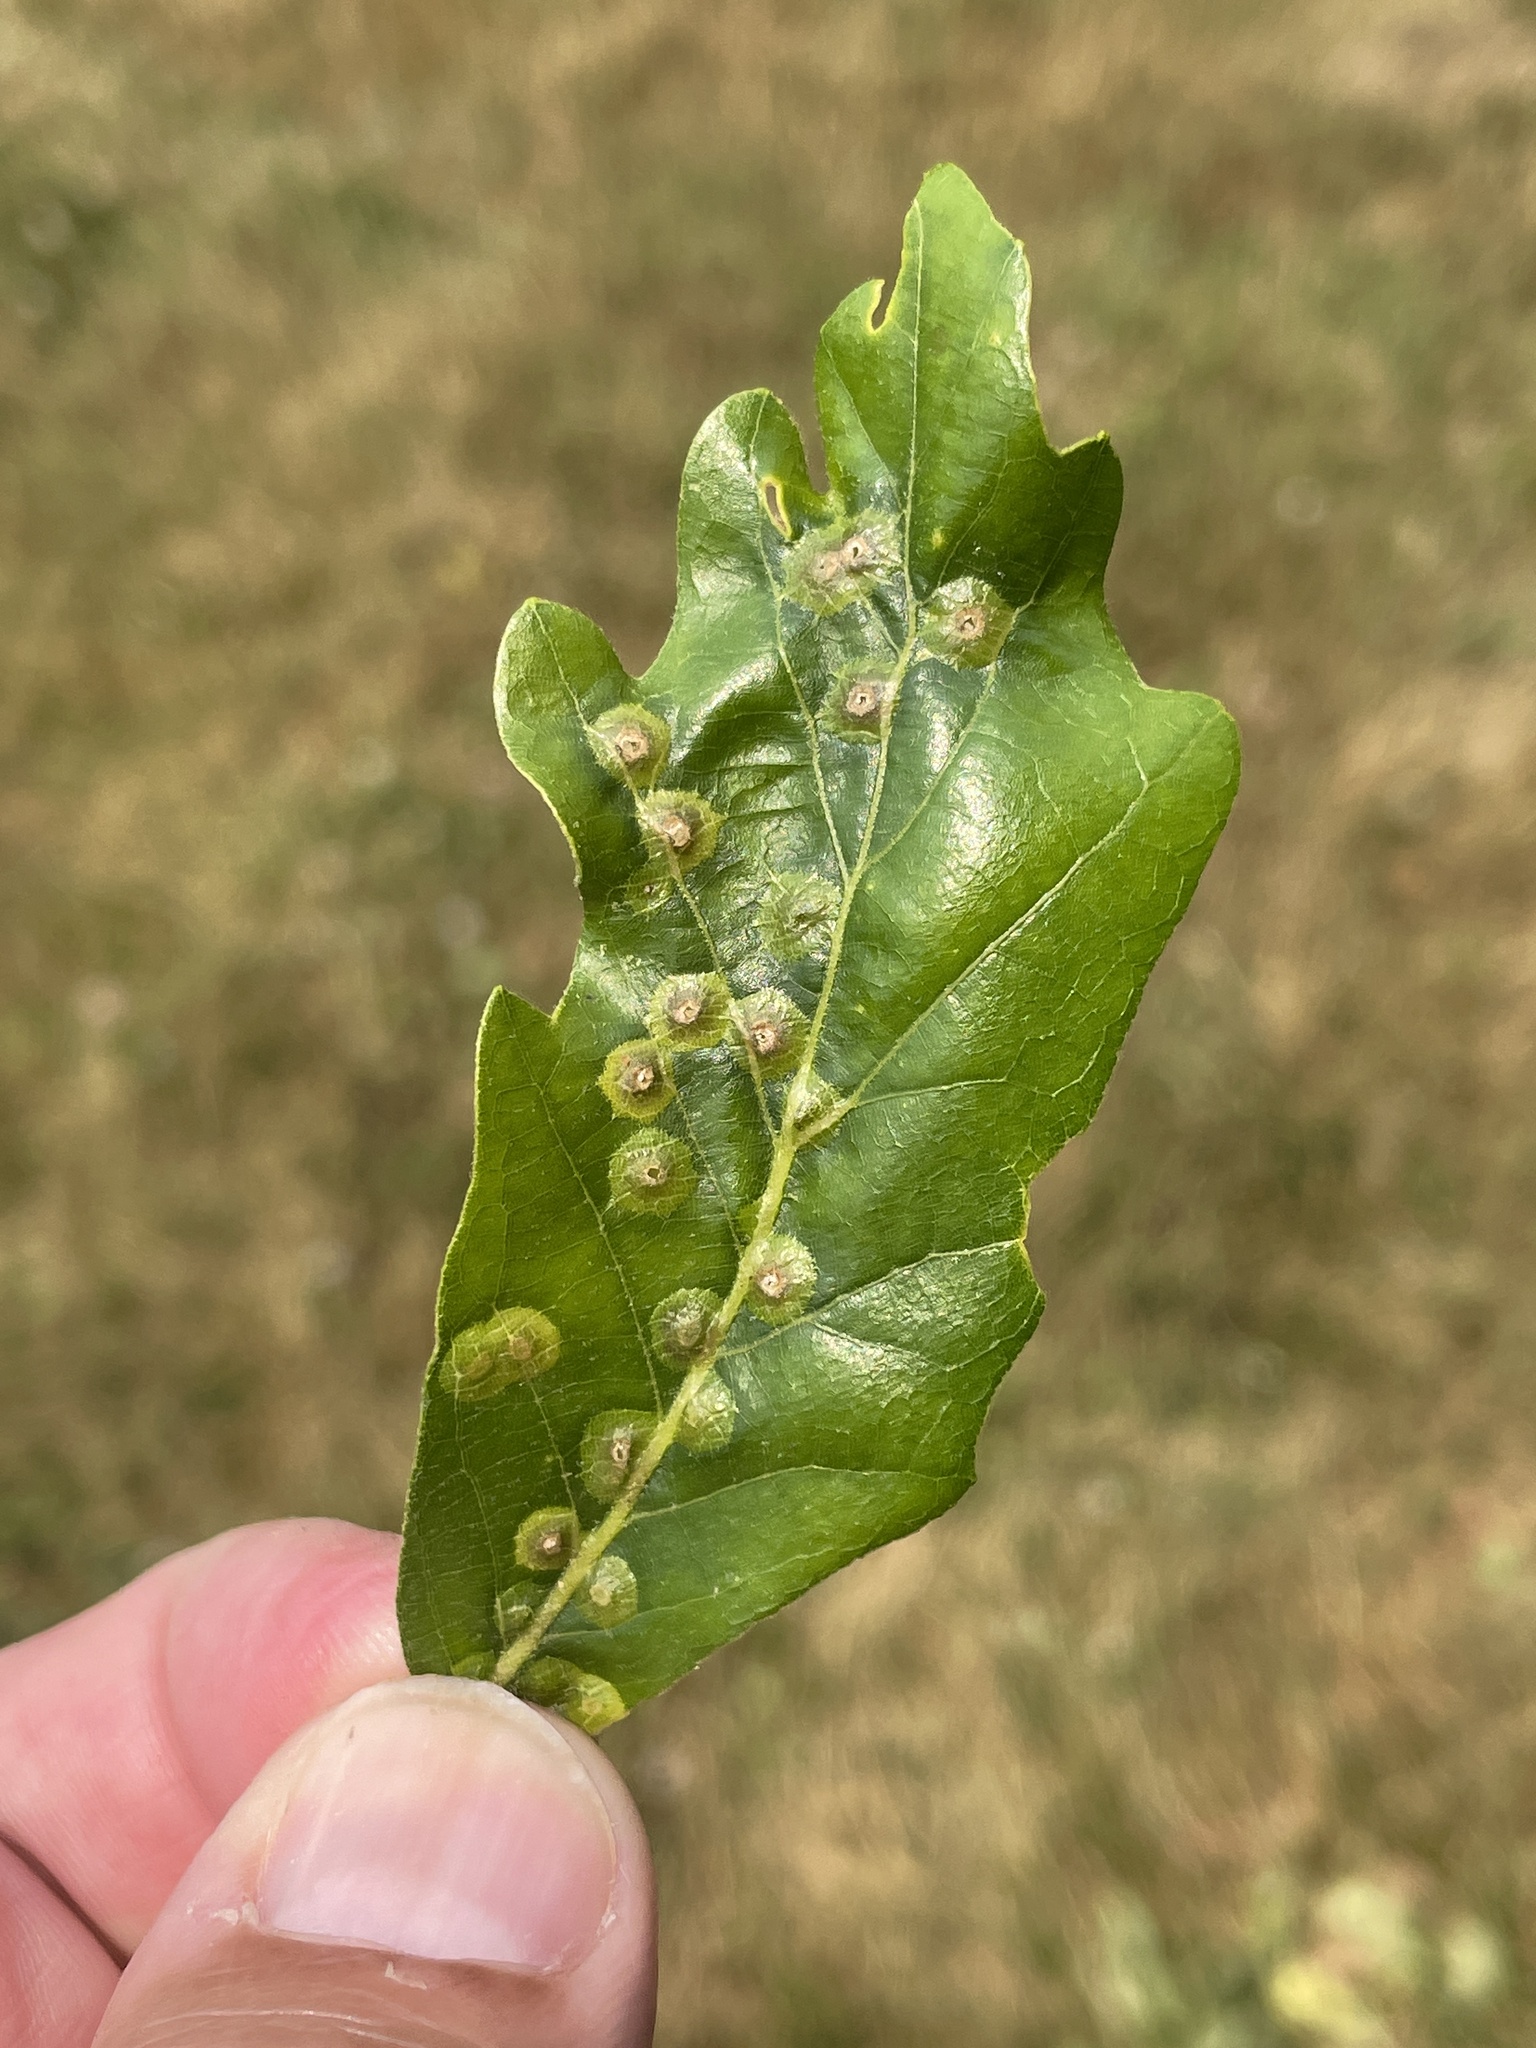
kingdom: Animalia
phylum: Arthropoda
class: Insecta
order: Hymenoptera
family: Cynipidae
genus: Callirhytis
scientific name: Callirhytis
